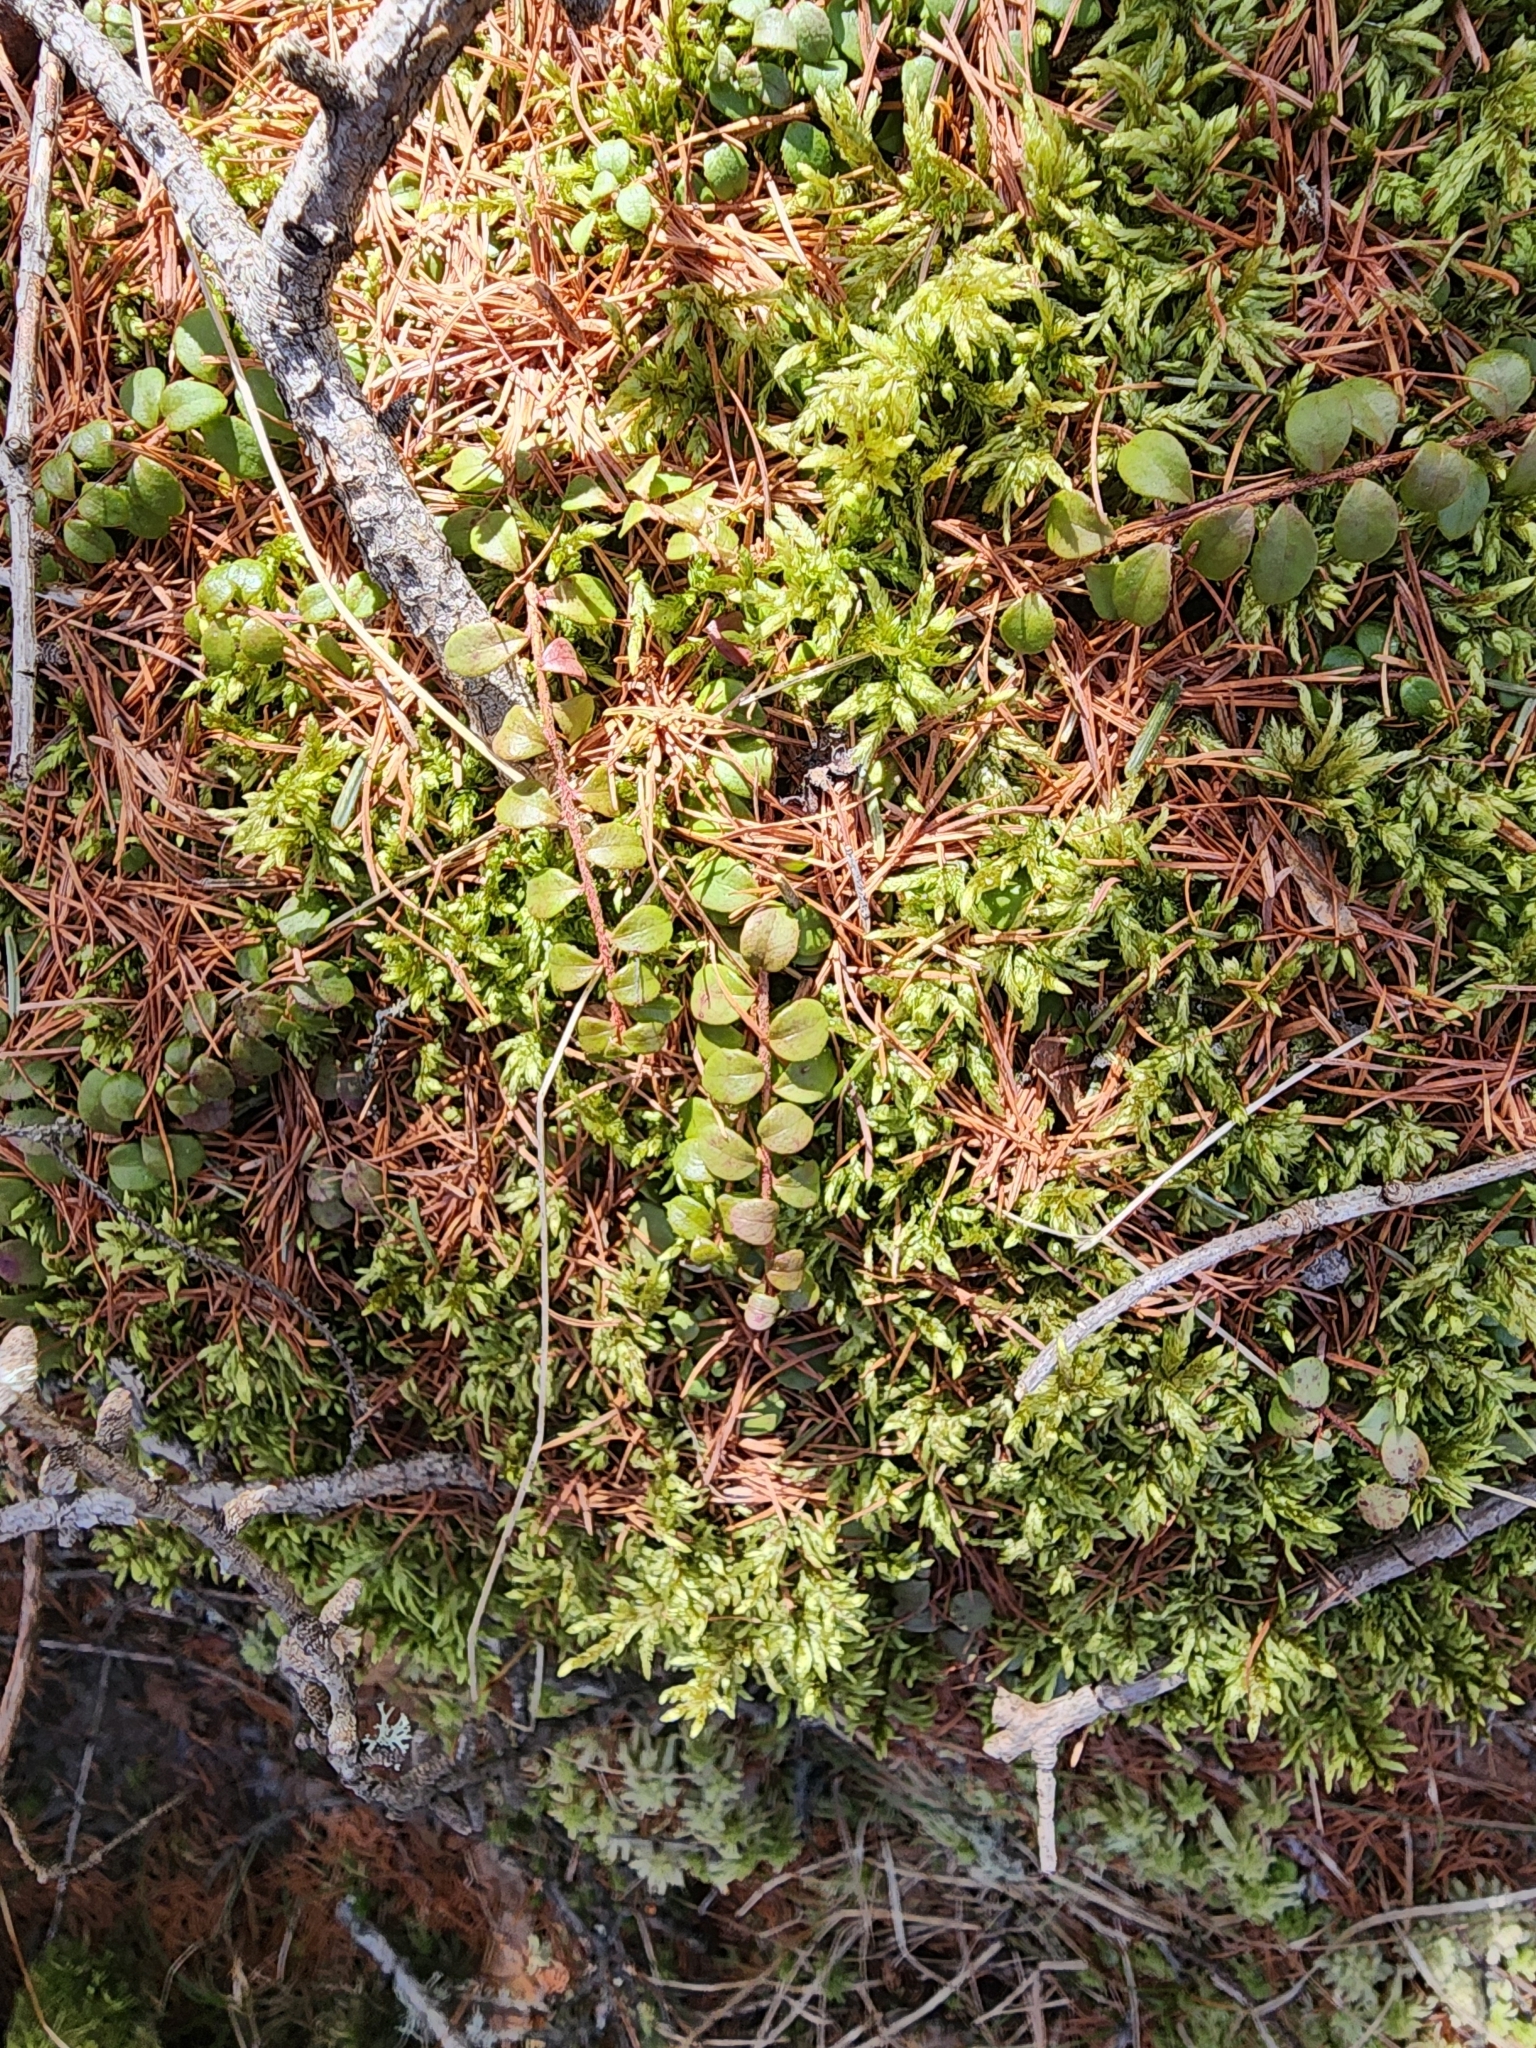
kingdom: Plantae
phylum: Tracheophyta
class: Magnoliopsida
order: Ericales
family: Ericaceae
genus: Gaultheria
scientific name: Gaultheria hispidula
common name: Cancer wintergreen
